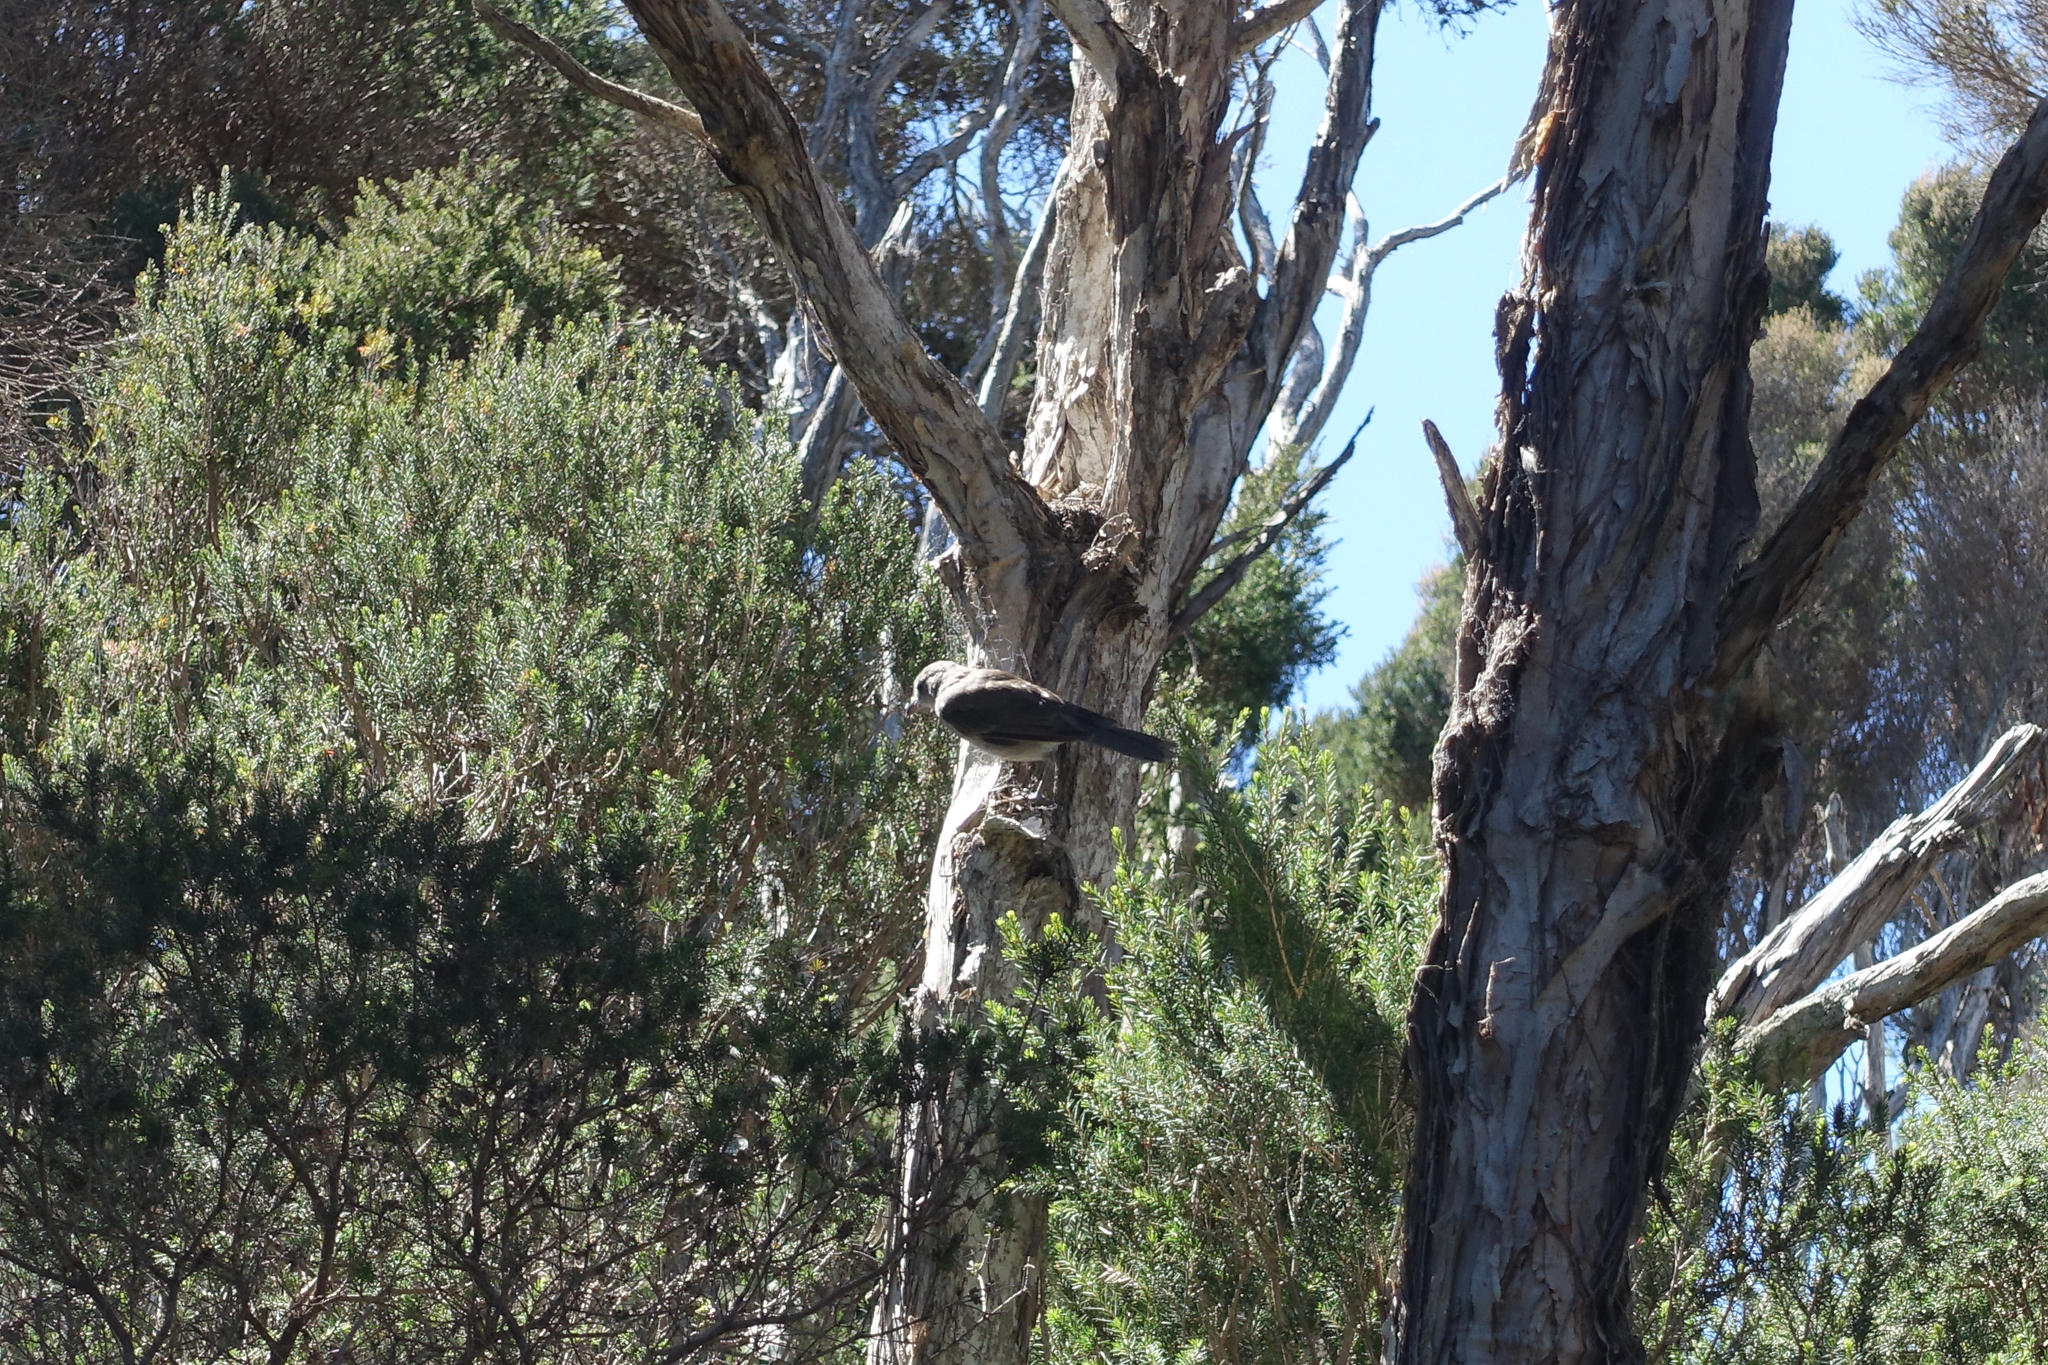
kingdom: Animalia
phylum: Chordata
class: Aves
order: Passeriformes
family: Pachycephalidae
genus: Colluricincla
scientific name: Colluricincla harmonica
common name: Grey shrikethrush
